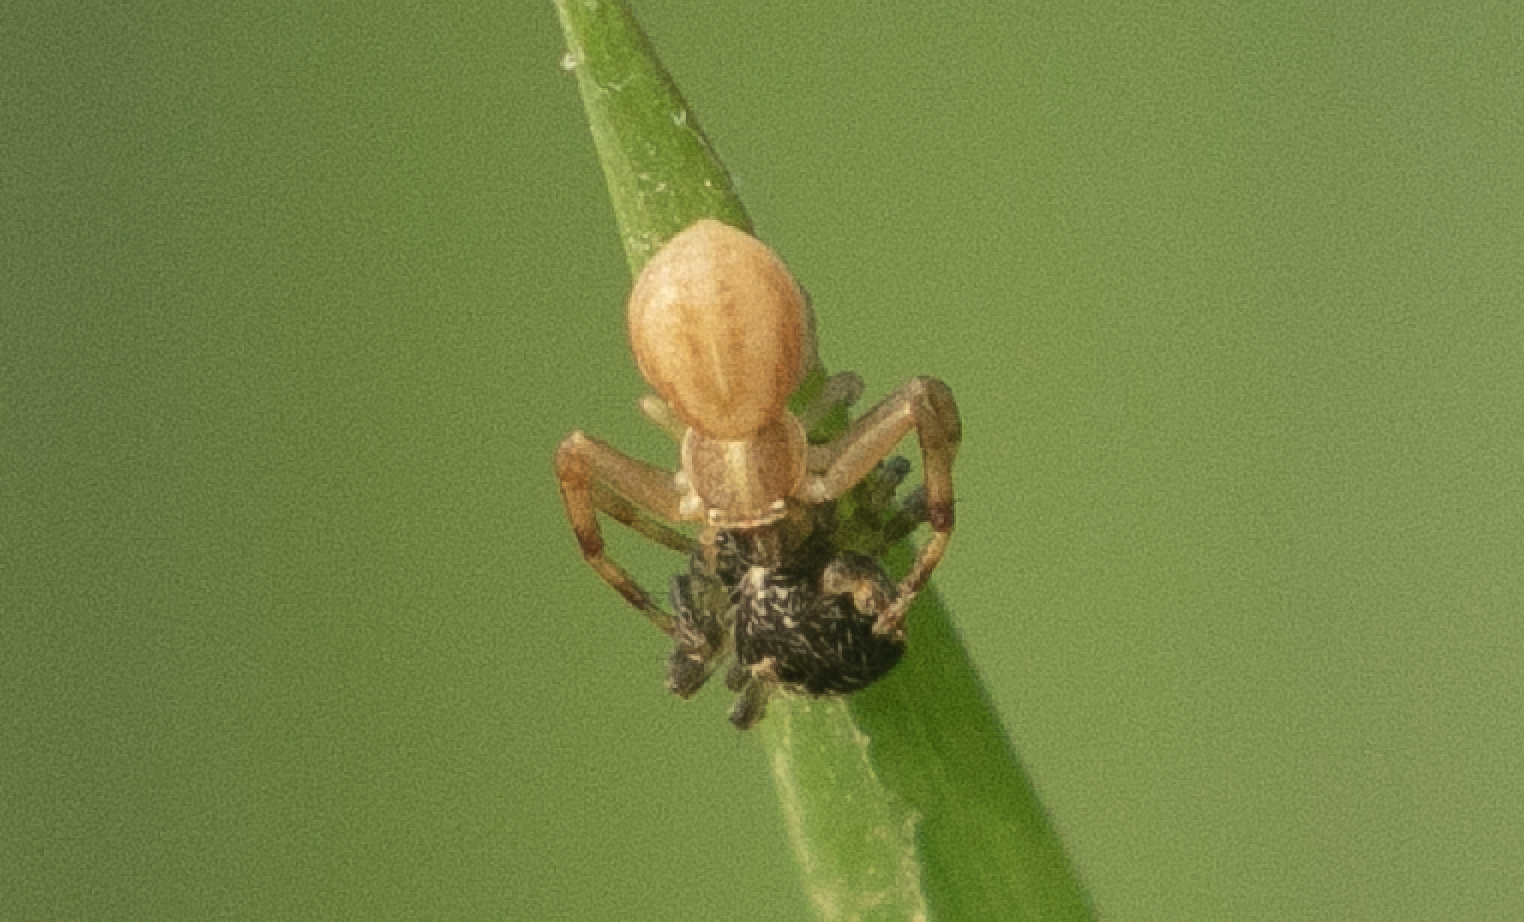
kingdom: Animalia
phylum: Arthropoda
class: Arachnida
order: Araneae
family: Thomisidae
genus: Runcinia
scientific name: Runcinia grammica
